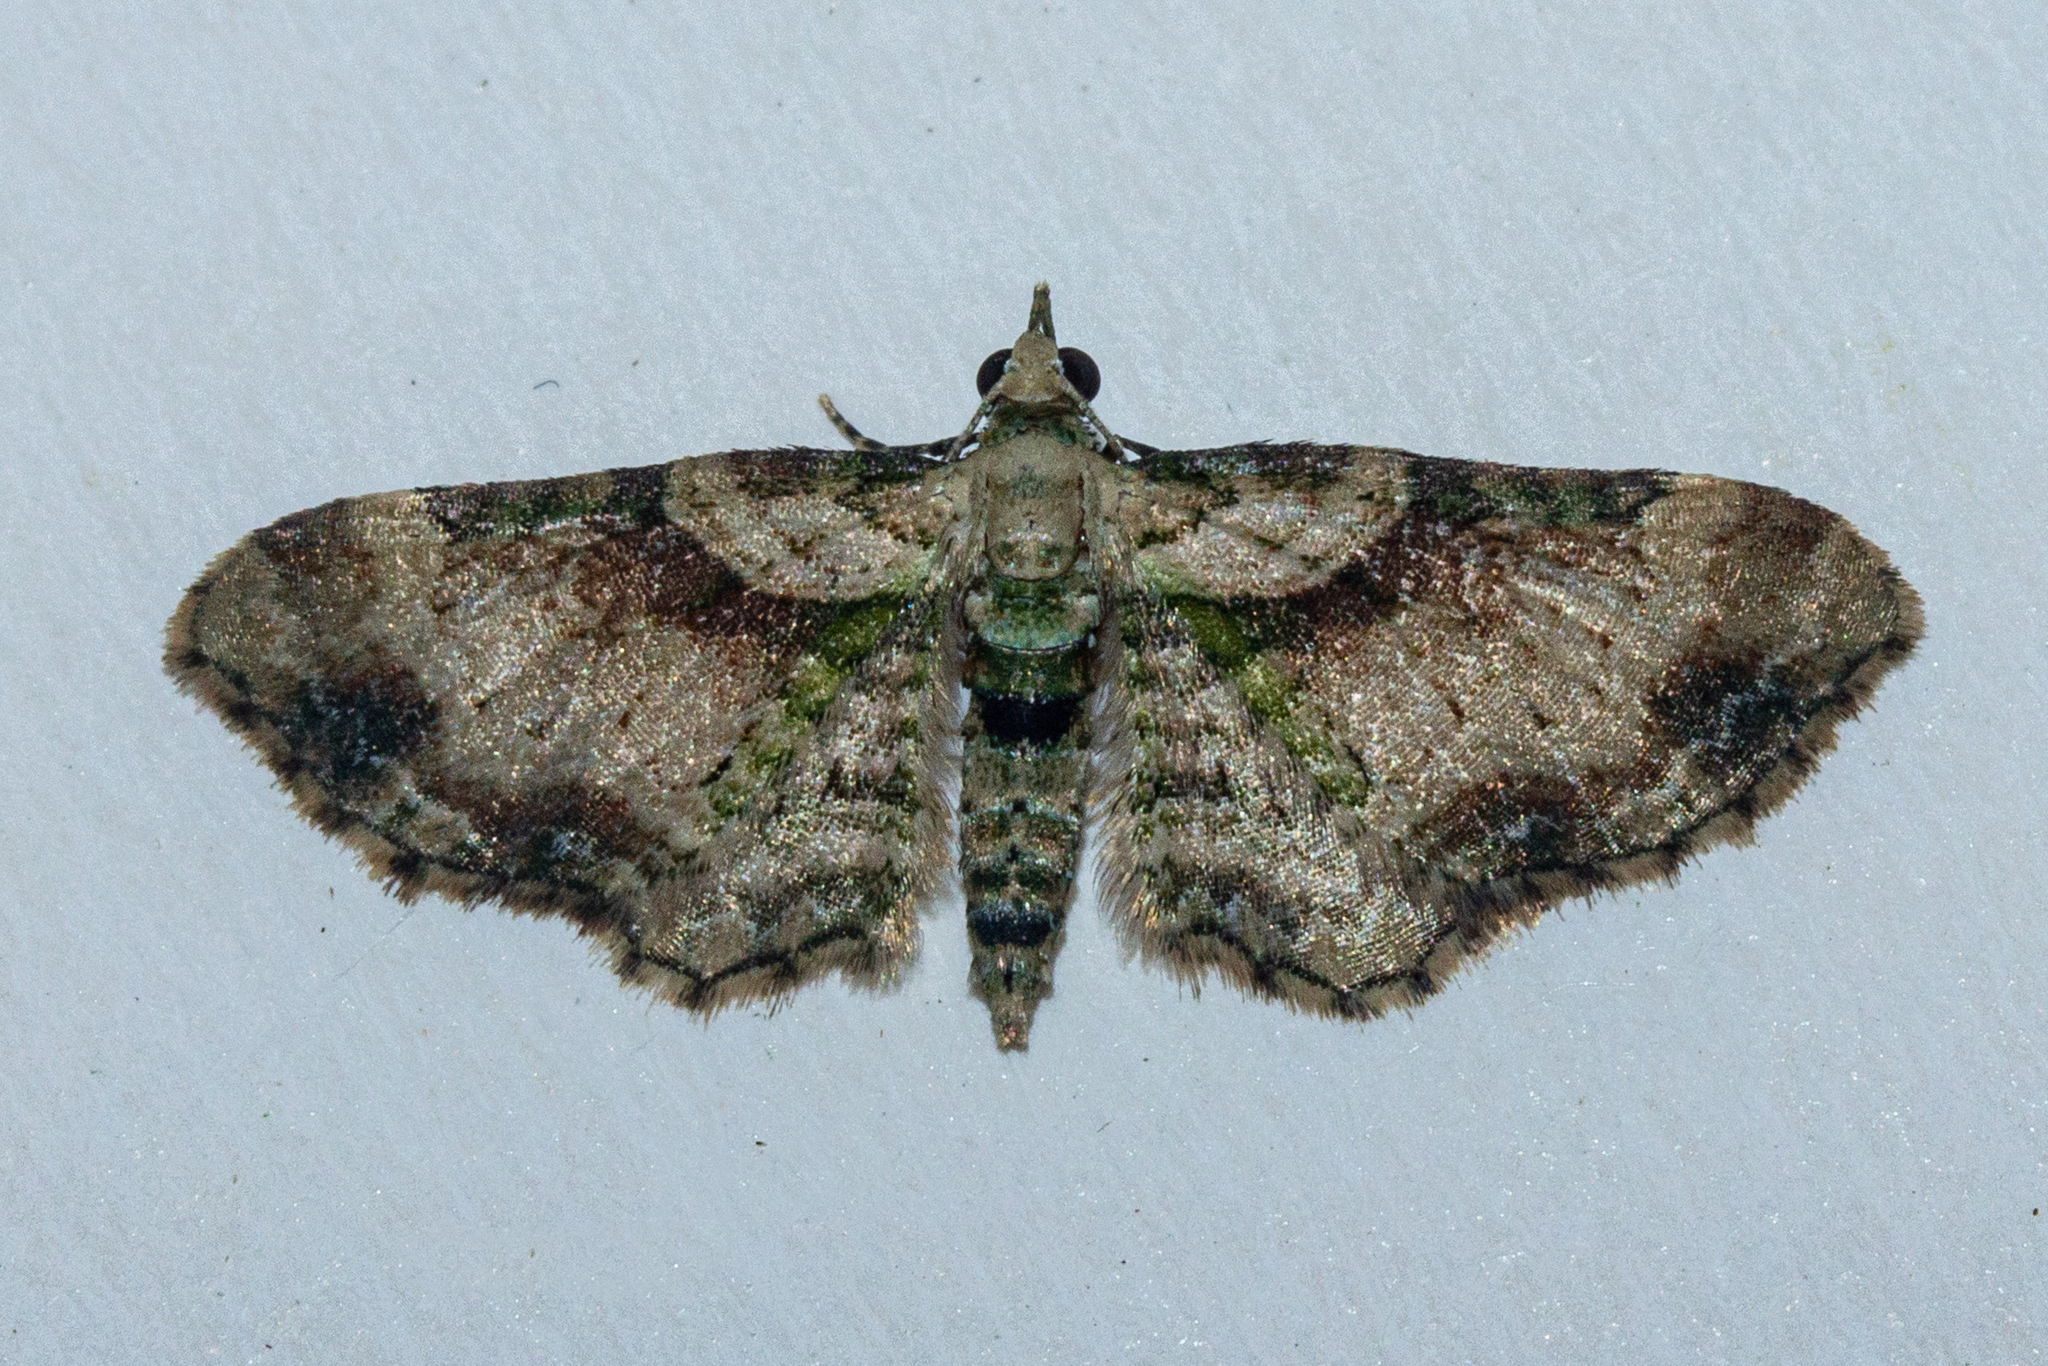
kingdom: Animalia
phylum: Arthropoda
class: Insecta
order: Lepidoptera
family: Geometridae
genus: Chloroclystis
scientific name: Chloroclystis
